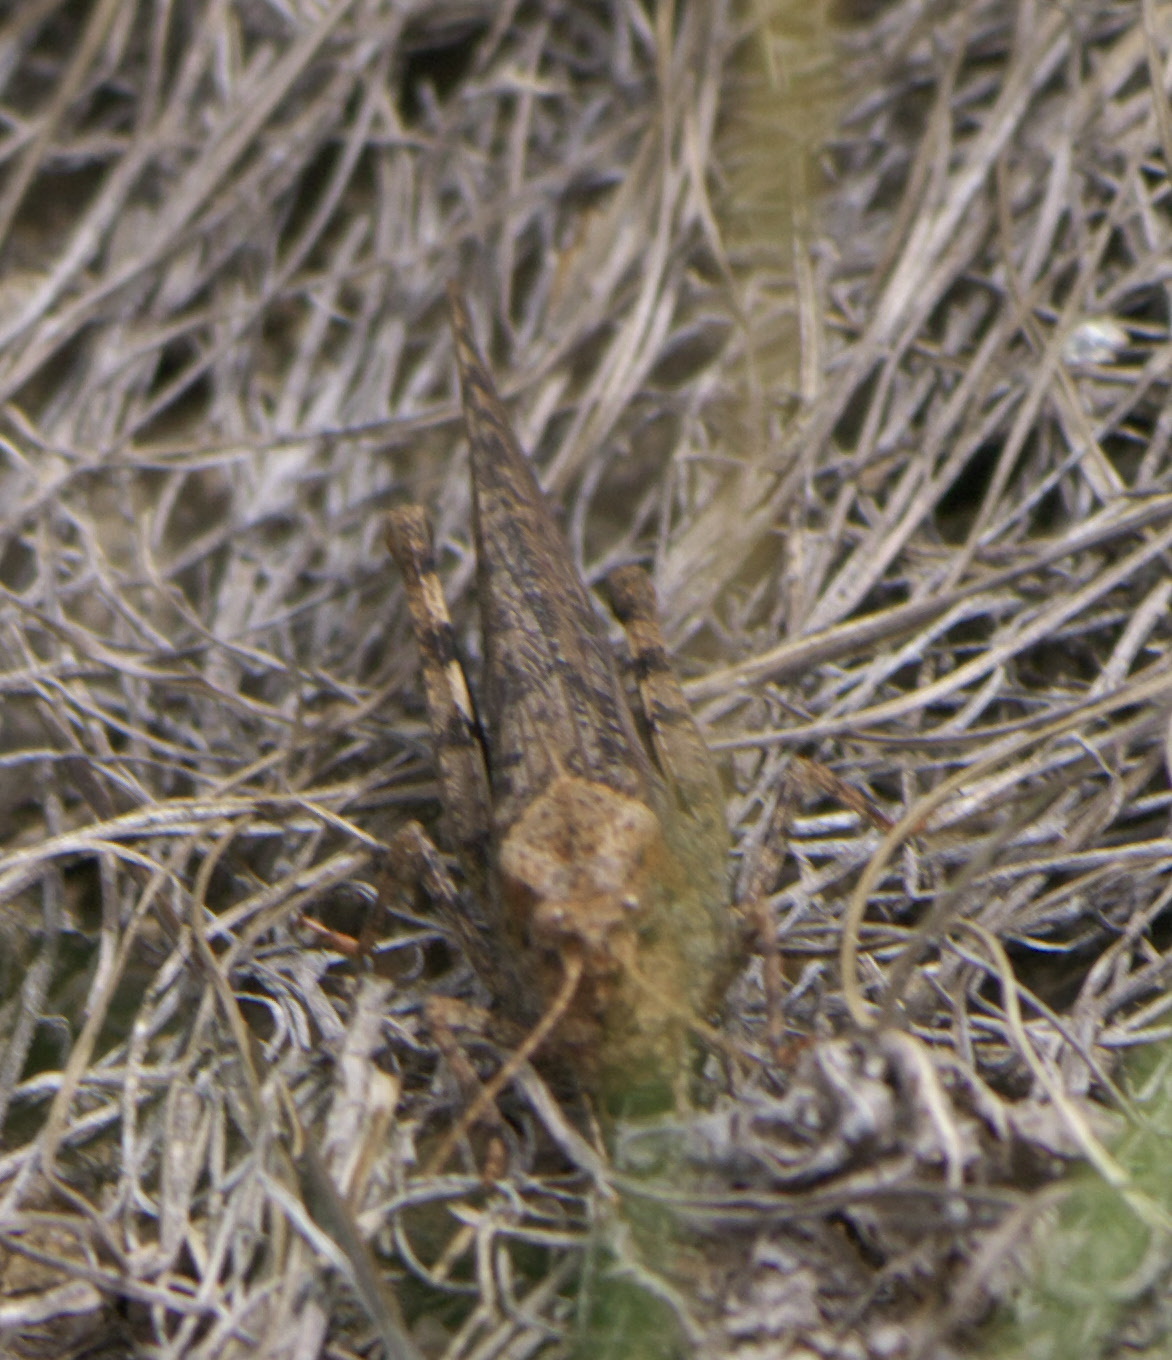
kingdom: Animalia
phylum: Arthropoda
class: Insecta
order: Orthoptera
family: Acrididae
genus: Trimerotropis
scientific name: Trimerotropis verruculata
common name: Crackling forest grasshopper
